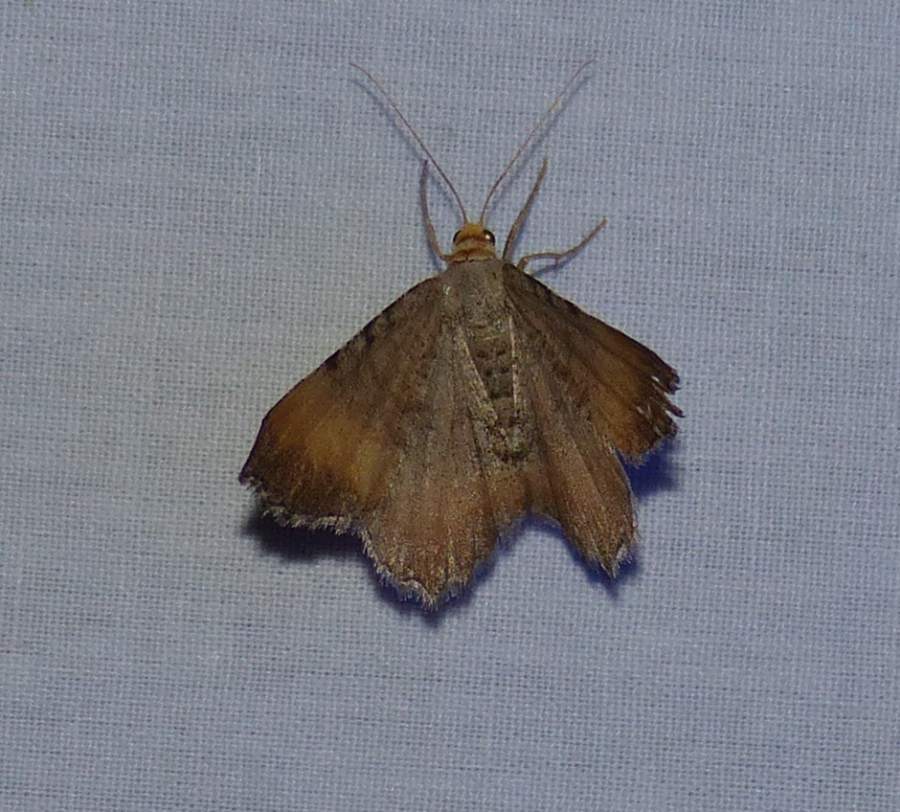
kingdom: Animalia
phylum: Arthropoda
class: Insecta
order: Lepidoptera
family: Geometridae
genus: Macaria
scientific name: Macaria transitaria
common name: Blurry chocolate angle
